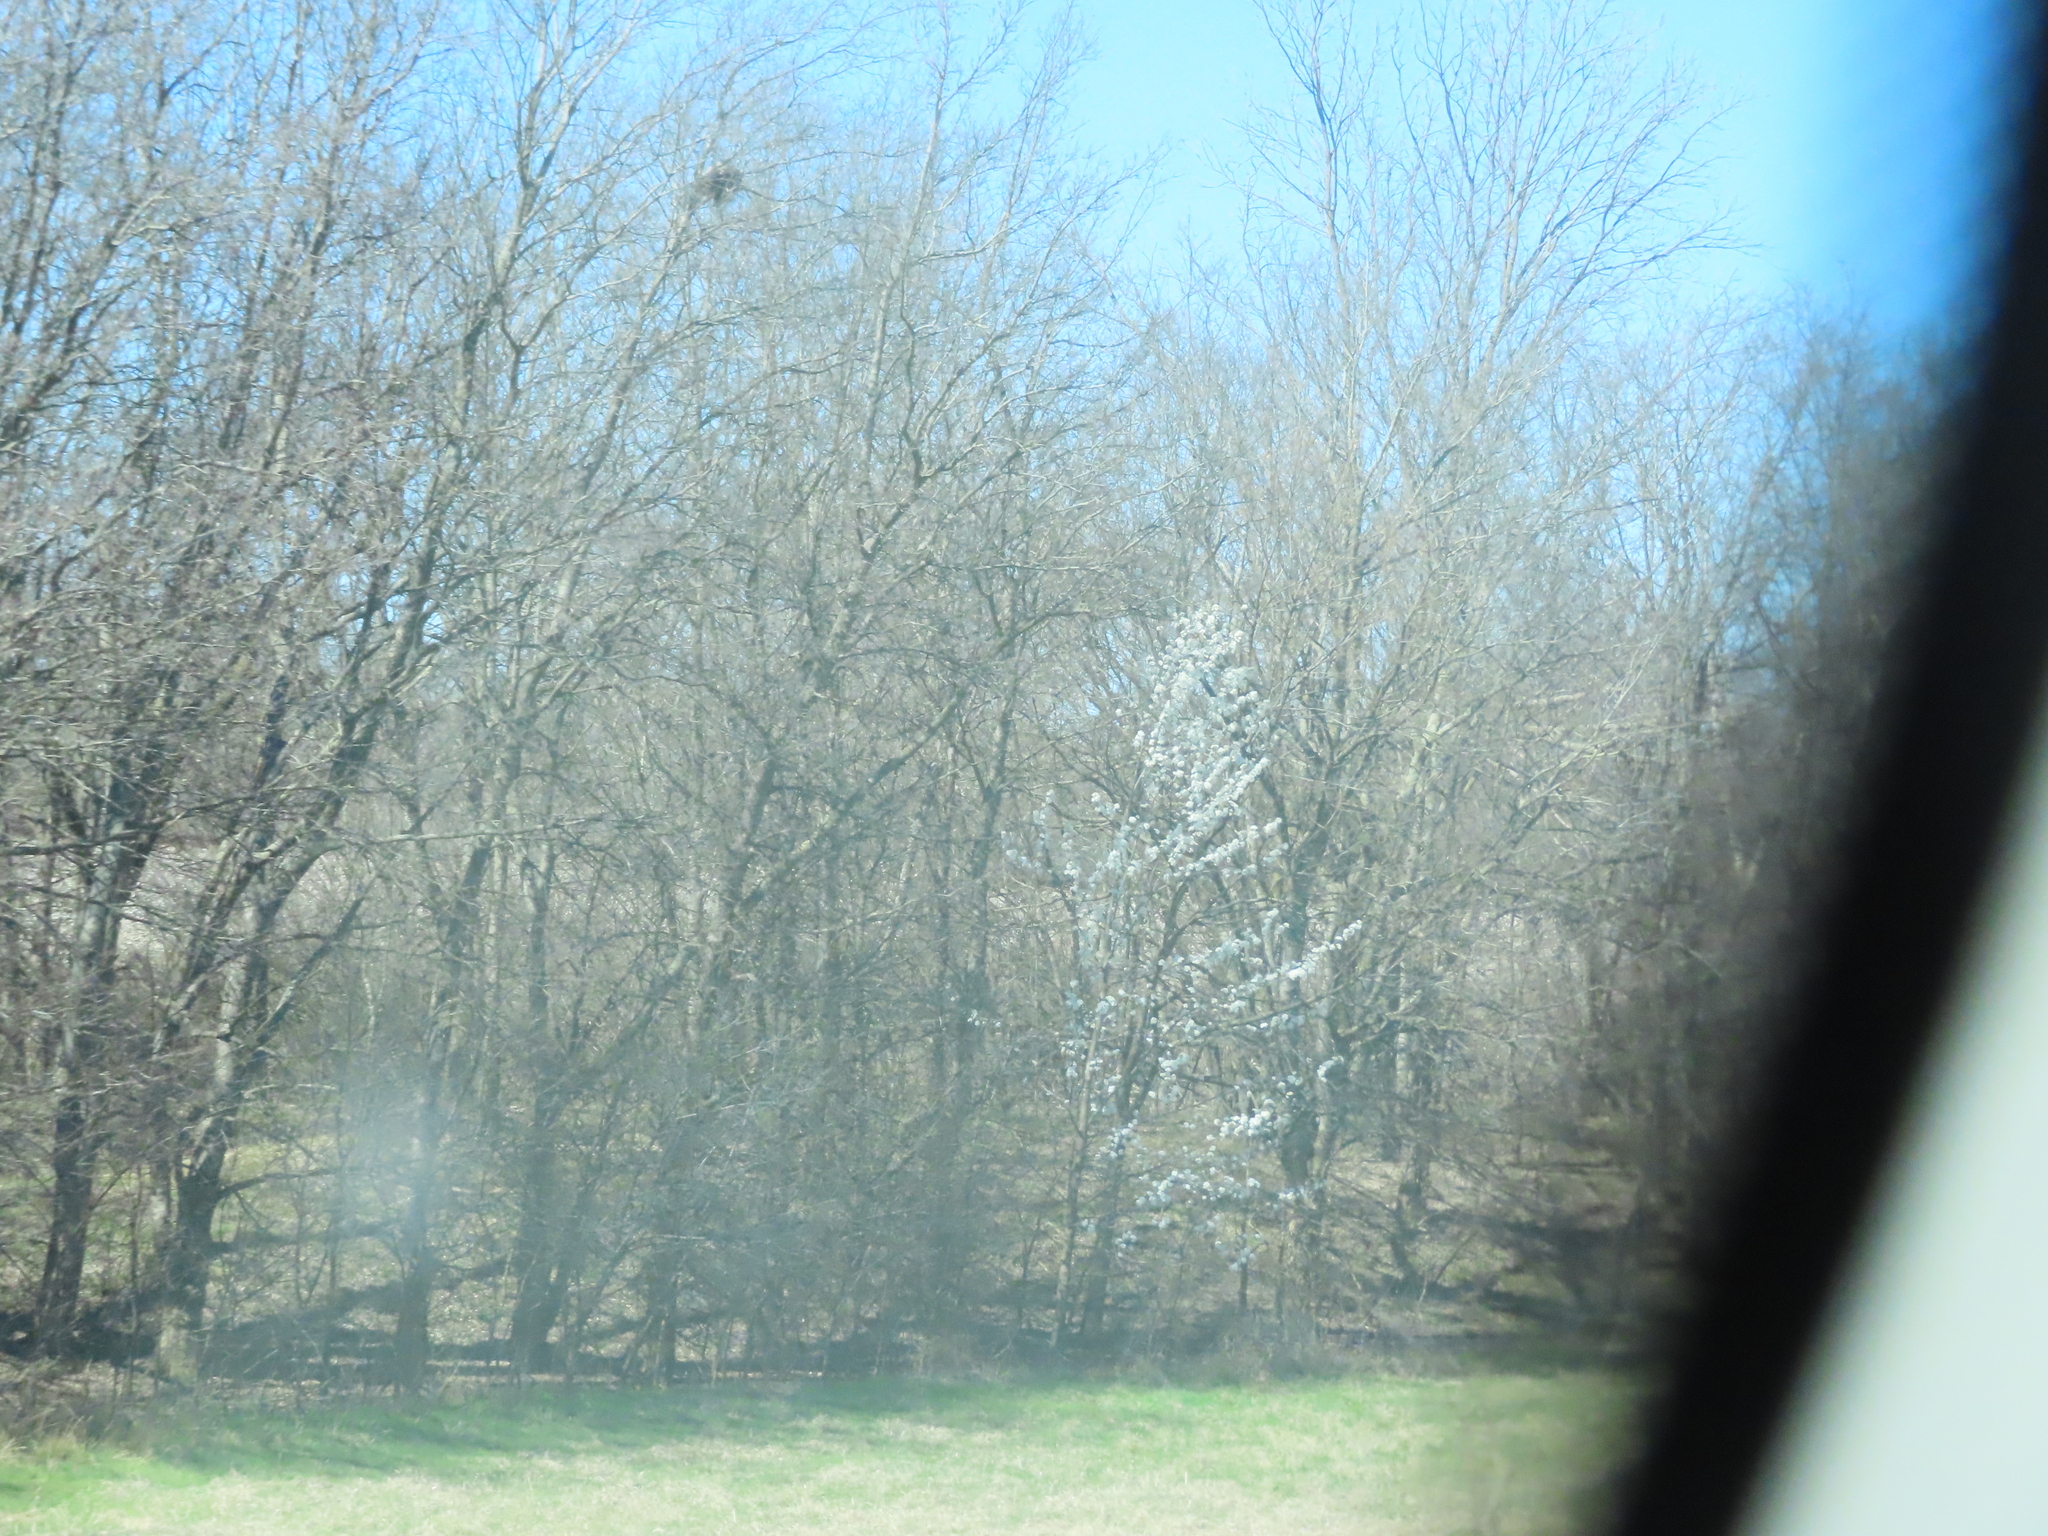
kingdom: Plantae
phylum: Tracheophyta
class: Magnoliopsida
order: Rosales
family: Rosaceae
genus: Pyrus
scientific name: Pyrus calleryana
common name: Callery pear
